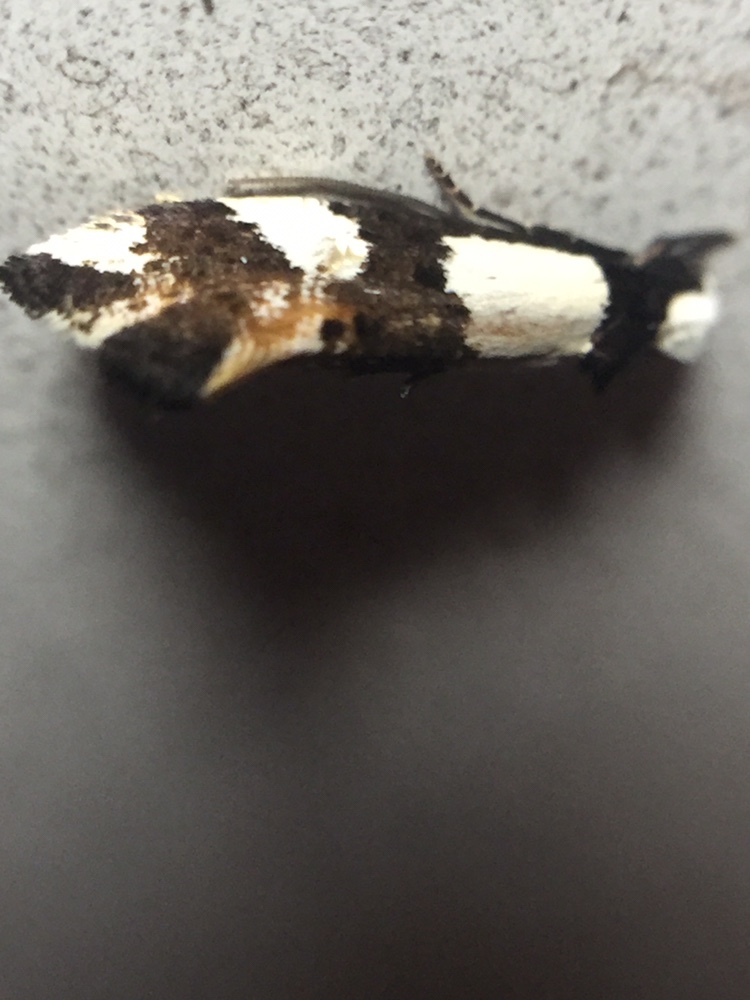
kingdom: Animalia
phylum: Arthropoda
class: Insecta
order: Lepidoptera
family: Tineidae
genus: Monopis
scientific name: Monopis icterogastra
